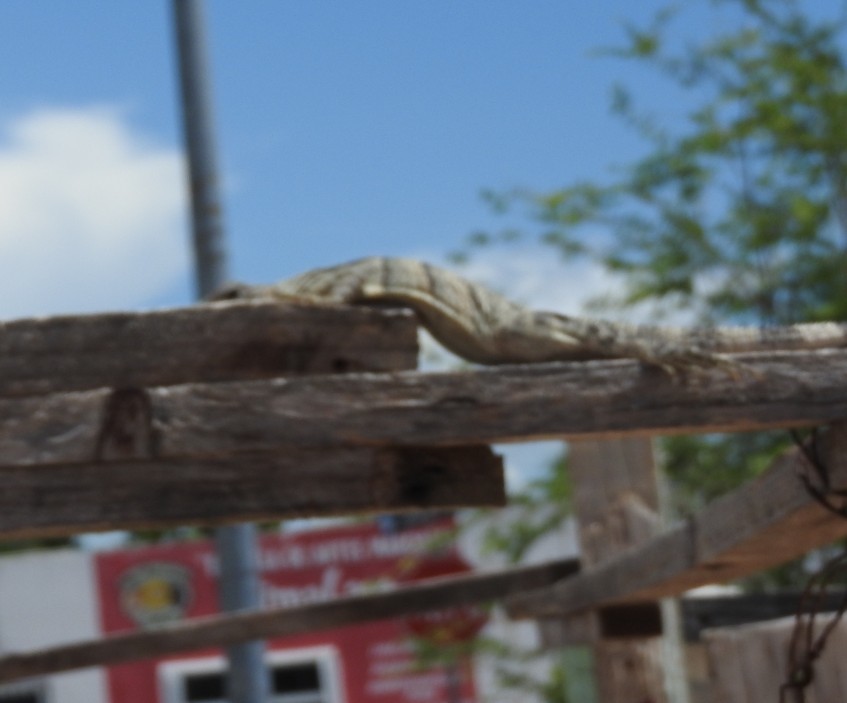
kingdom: Animalia
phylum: Chordata
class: Squamata
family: Iguanidae
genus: Ctenosaura
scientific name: Ctenosaura similis
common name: Black spiny-tailed iguana
